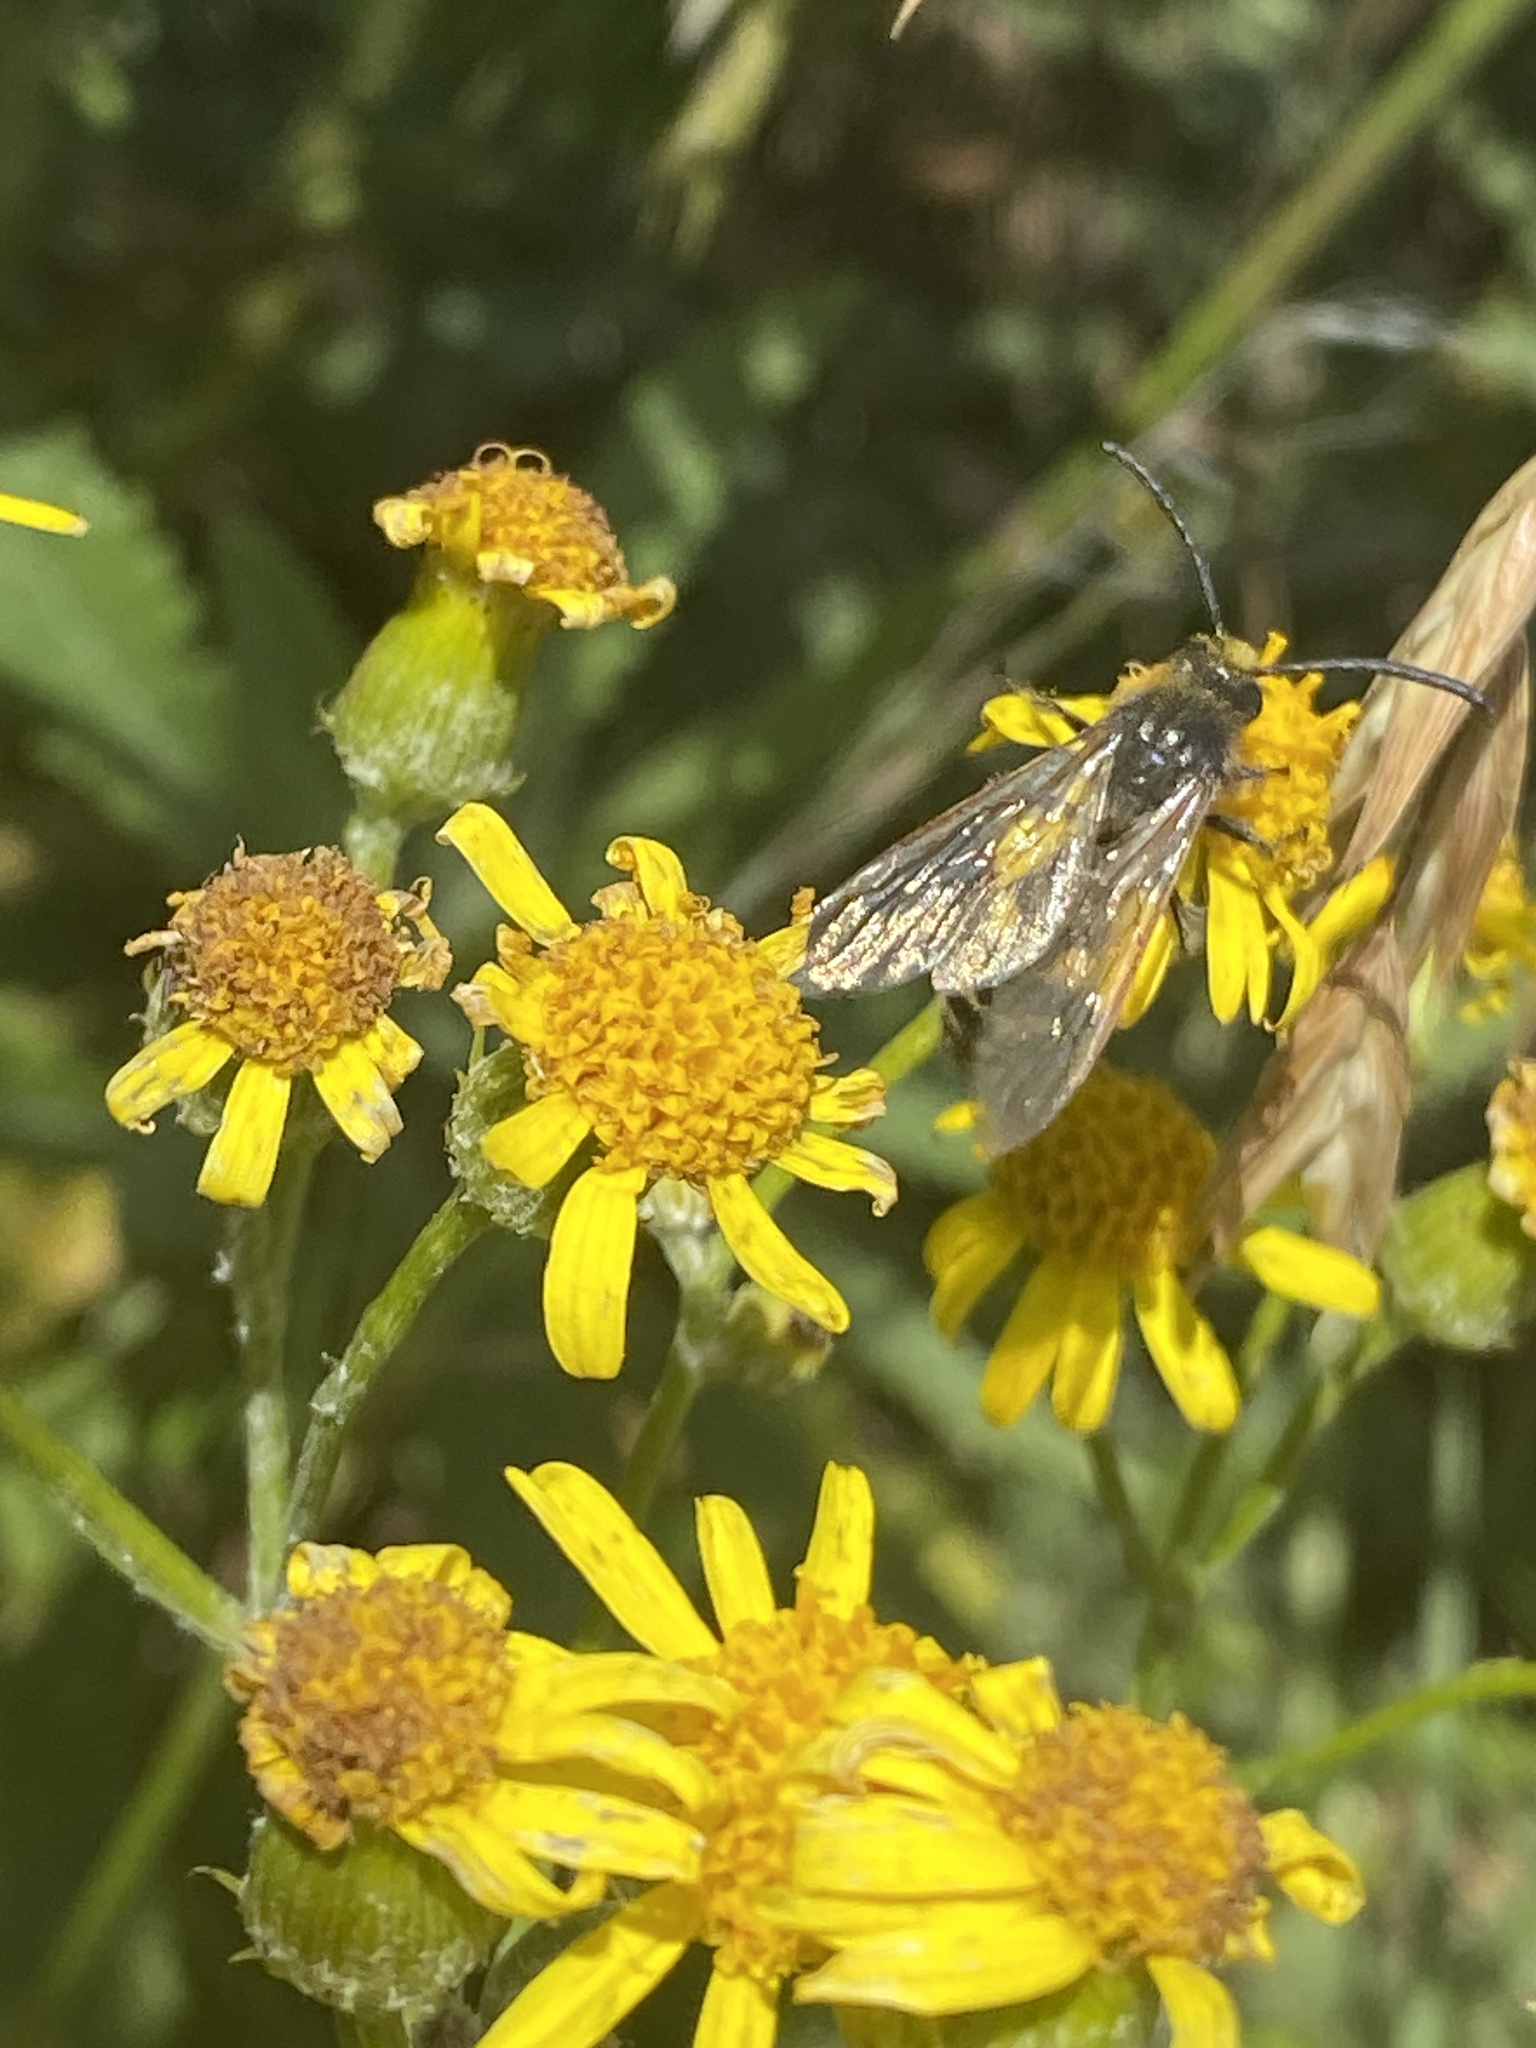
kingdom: Animalia
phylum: Arthropoda
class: Insecta
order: Hymenoptera
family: Scoliidae
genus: Pygodasis
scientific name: Pygodasis
